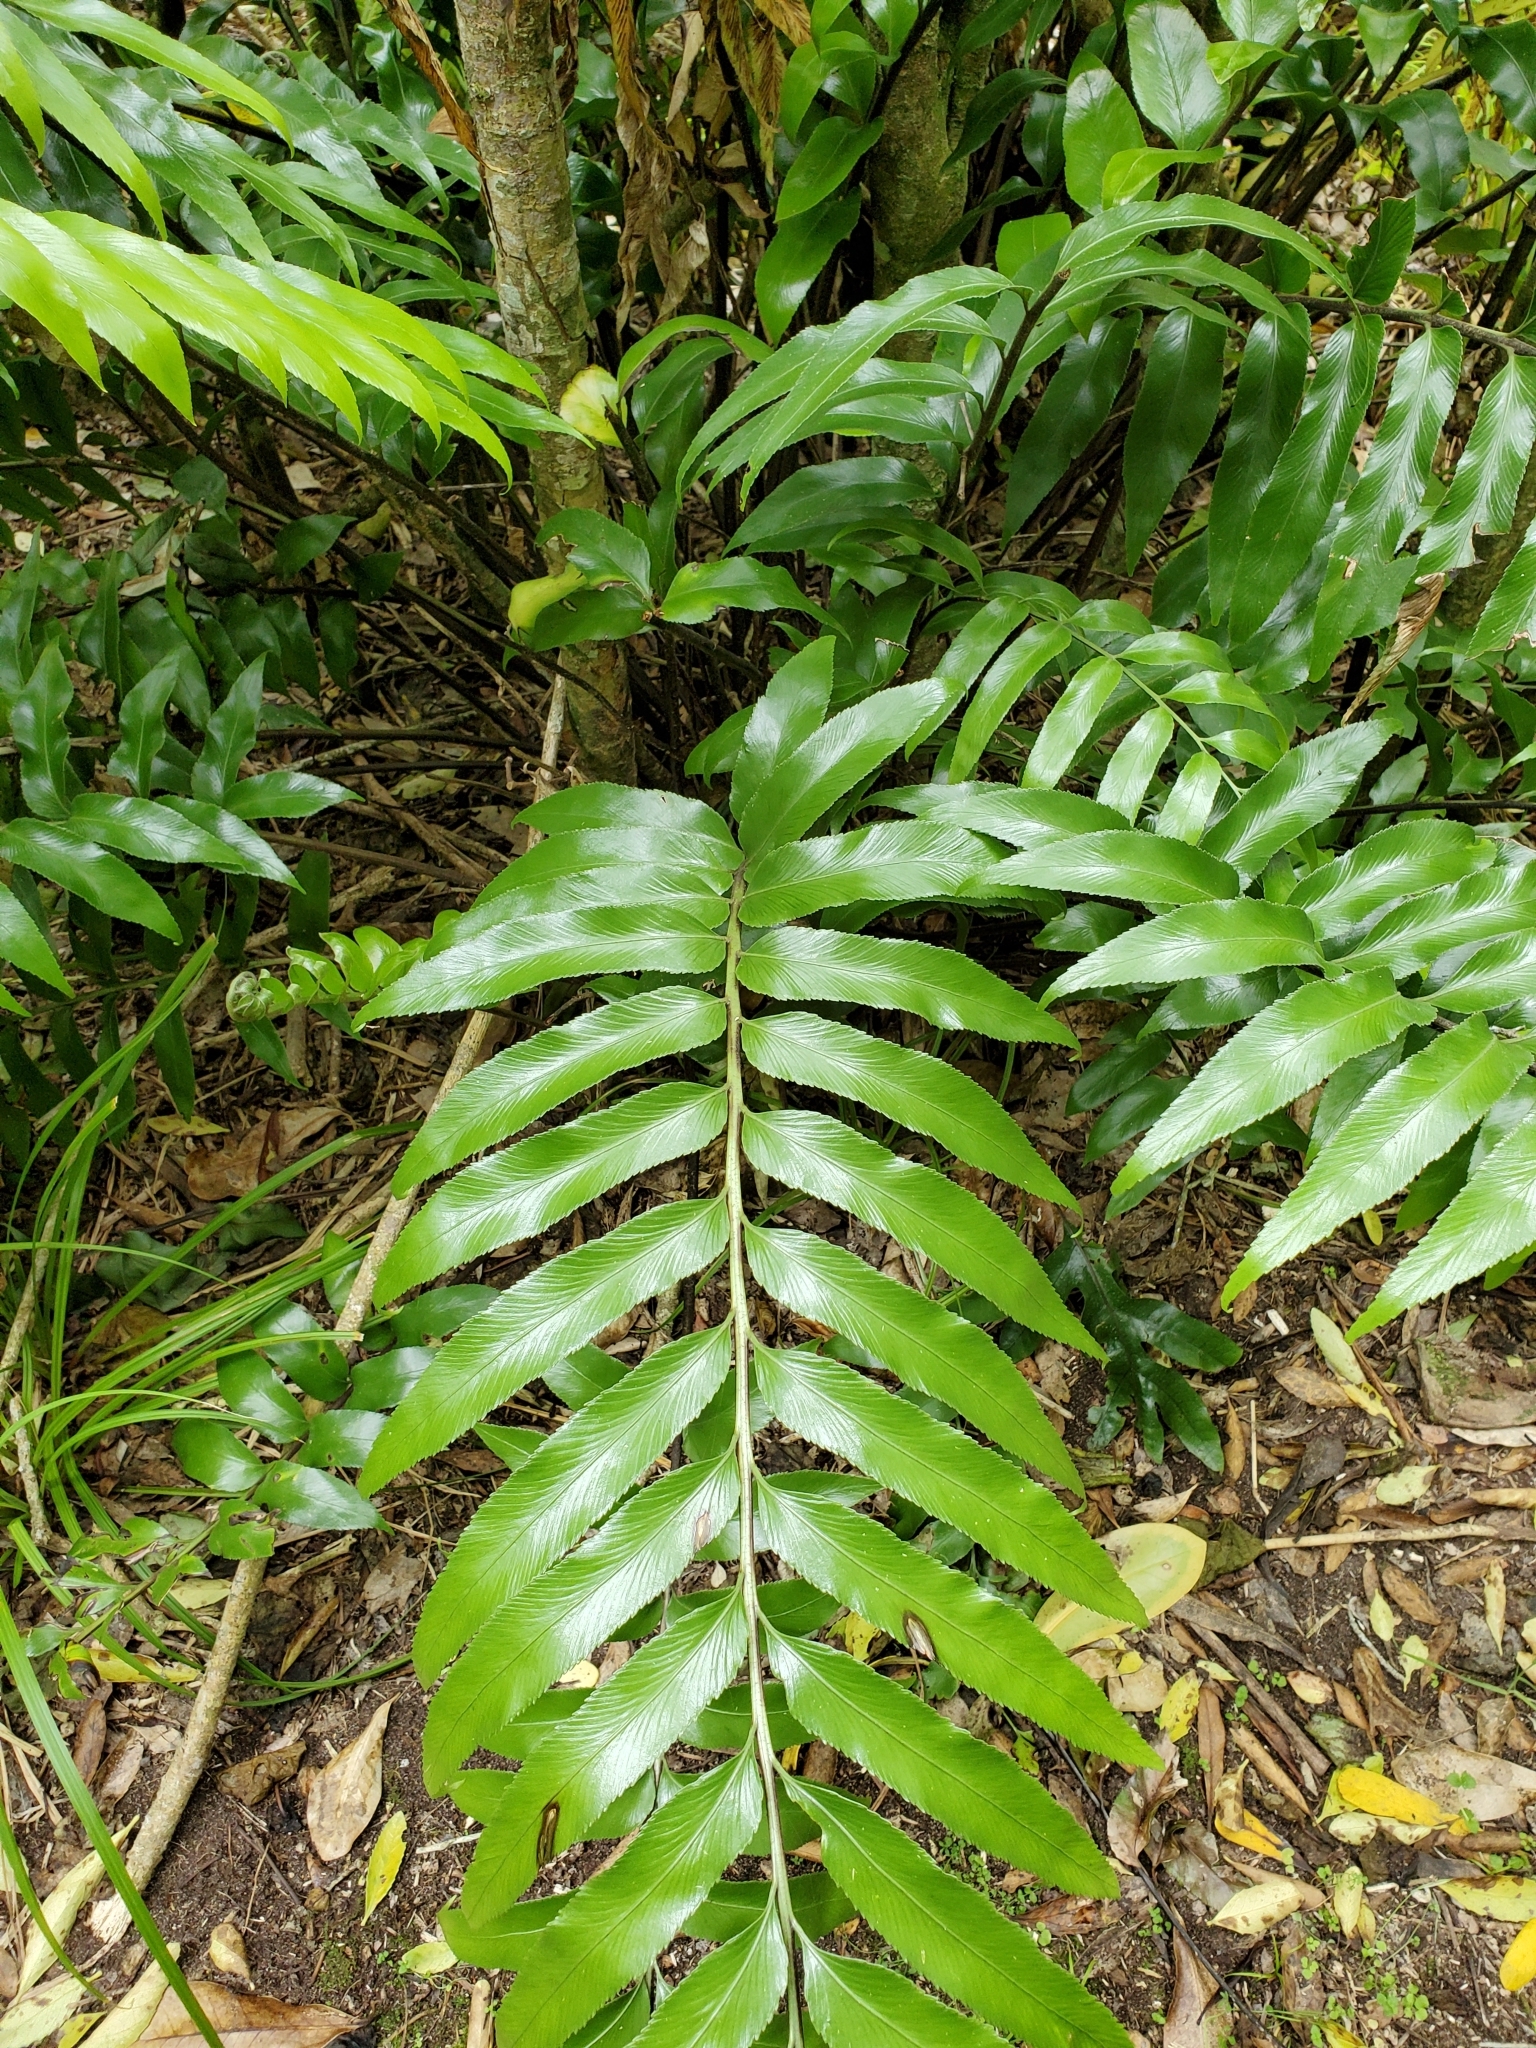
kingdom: Plantae
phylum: Tracheophyta
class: Polypodiopsida
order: Polypodiales
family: Aspleniaceae
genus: Asplenium
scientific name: Asplenium oblongifolium
